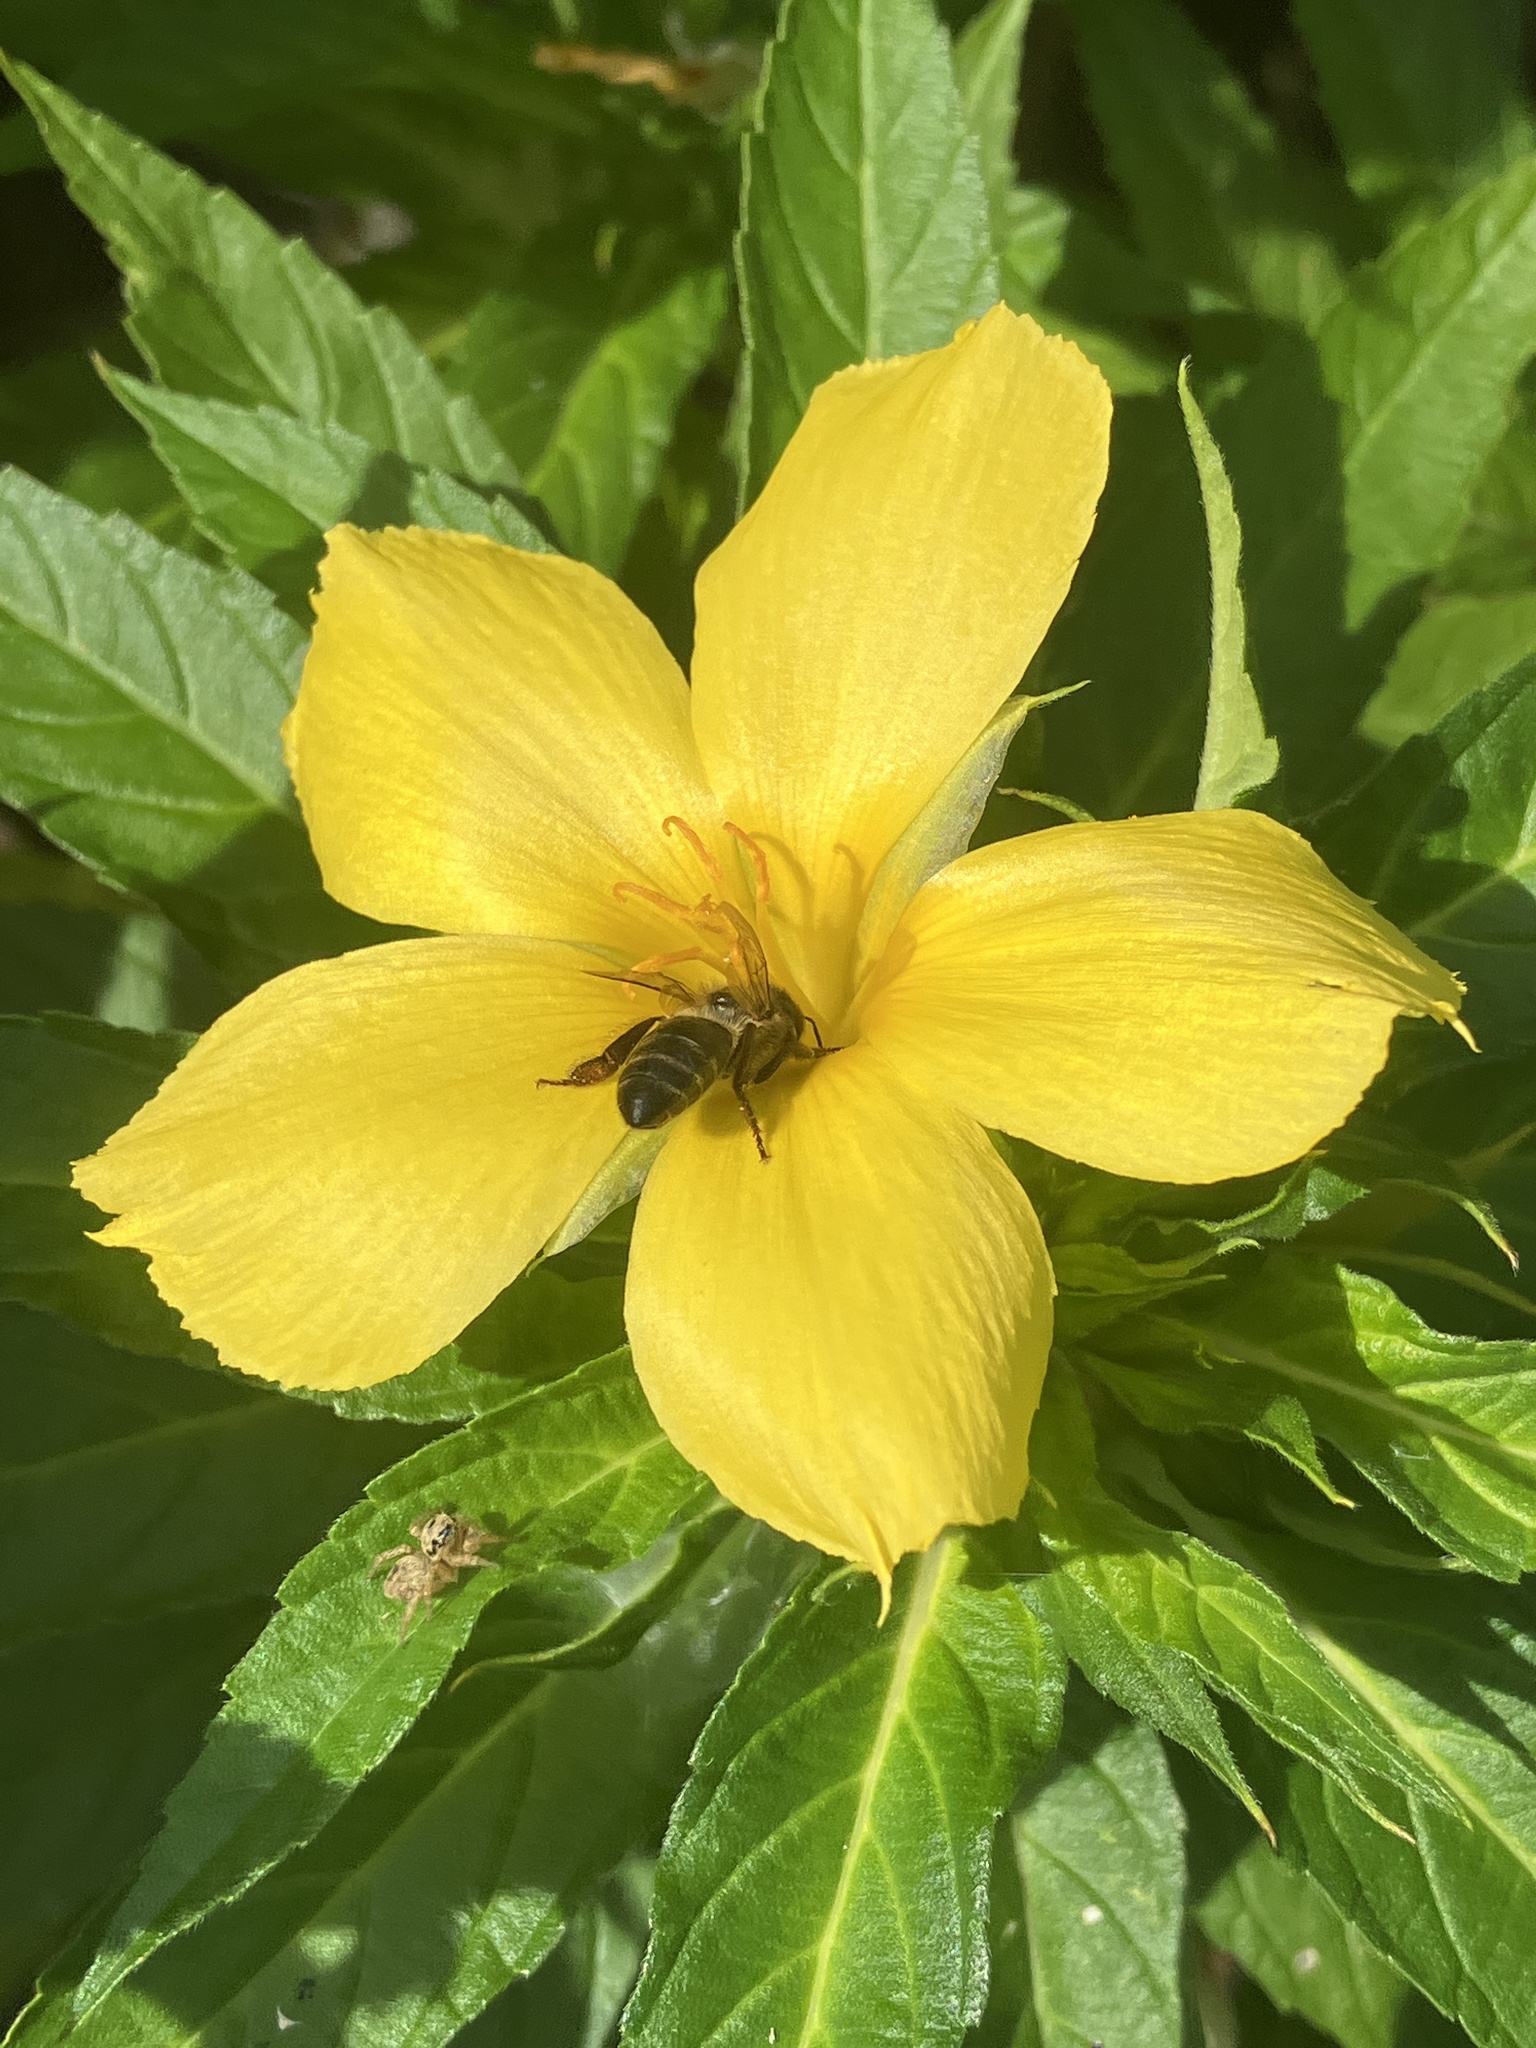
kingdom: Animalia
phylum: Arthropoda
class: Insecta
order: Hymenoptera
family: Apidae
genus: Apis
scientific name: Apis mellifera
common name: Honey bee
